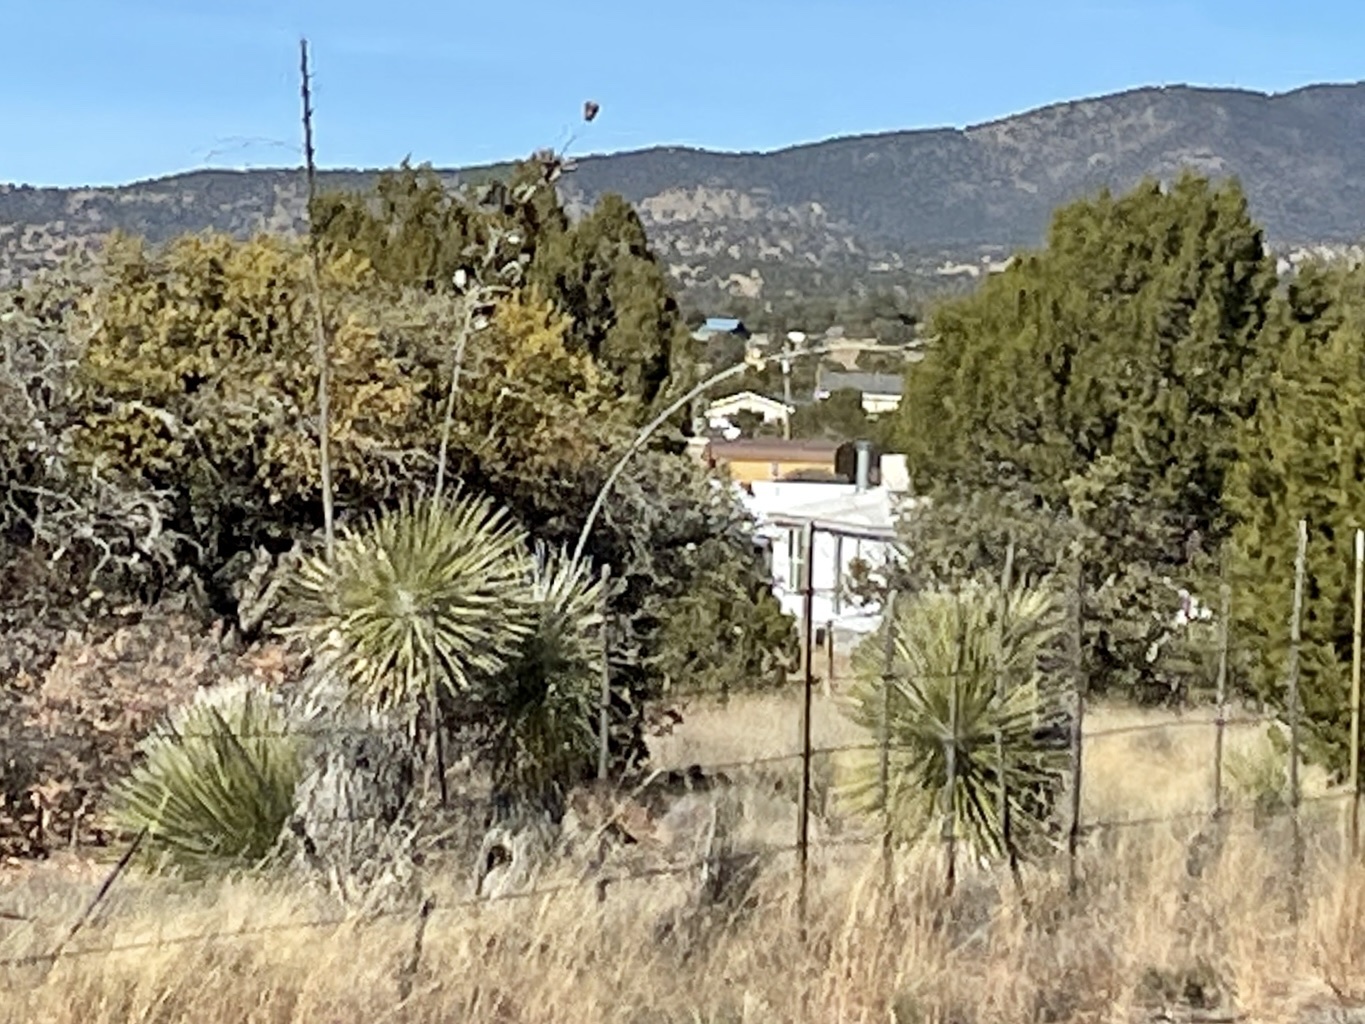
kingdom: Plantae
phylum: Tracheophyta
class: Liliopsida
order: Asparagales
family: Asparagaceae
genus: Yucca
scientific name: Yucca elata
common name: Palmella
